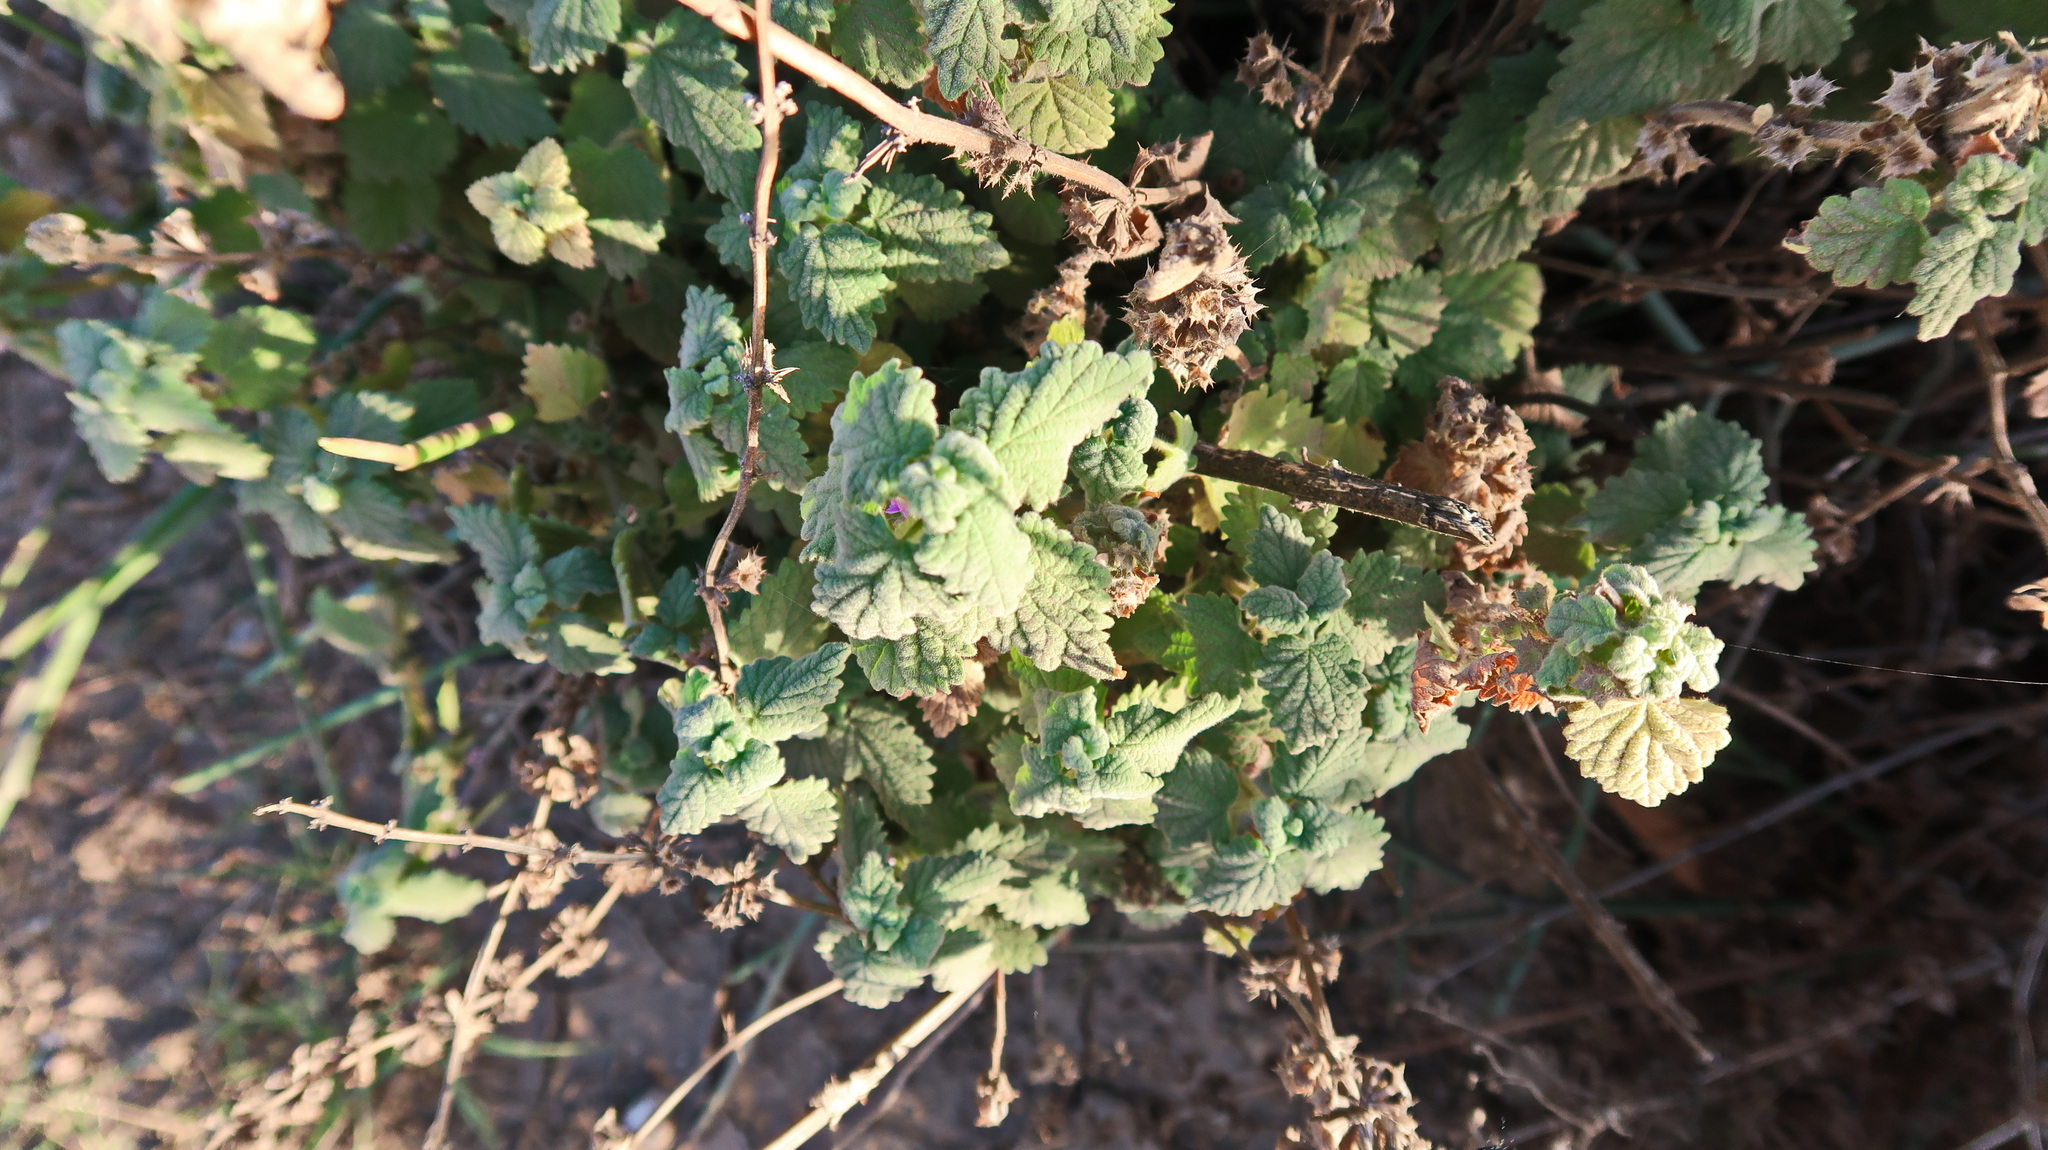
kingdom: Plantae
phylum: Tracheophyta
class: Magnoliopsida
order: Lamiales
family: Lamiaceae
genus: Pseudodictamnus
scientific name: Pseudodictamnus africanus
